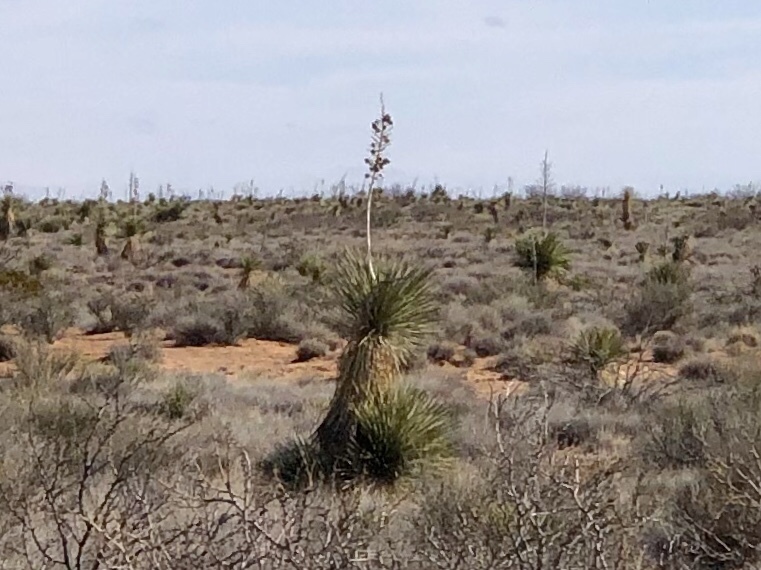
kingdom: Plantae
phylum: Tracheophyta
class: Liliopsida
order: Asparagales
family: Asparagaceae
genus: Yucca
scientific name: Yucca elata
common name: Palmella
